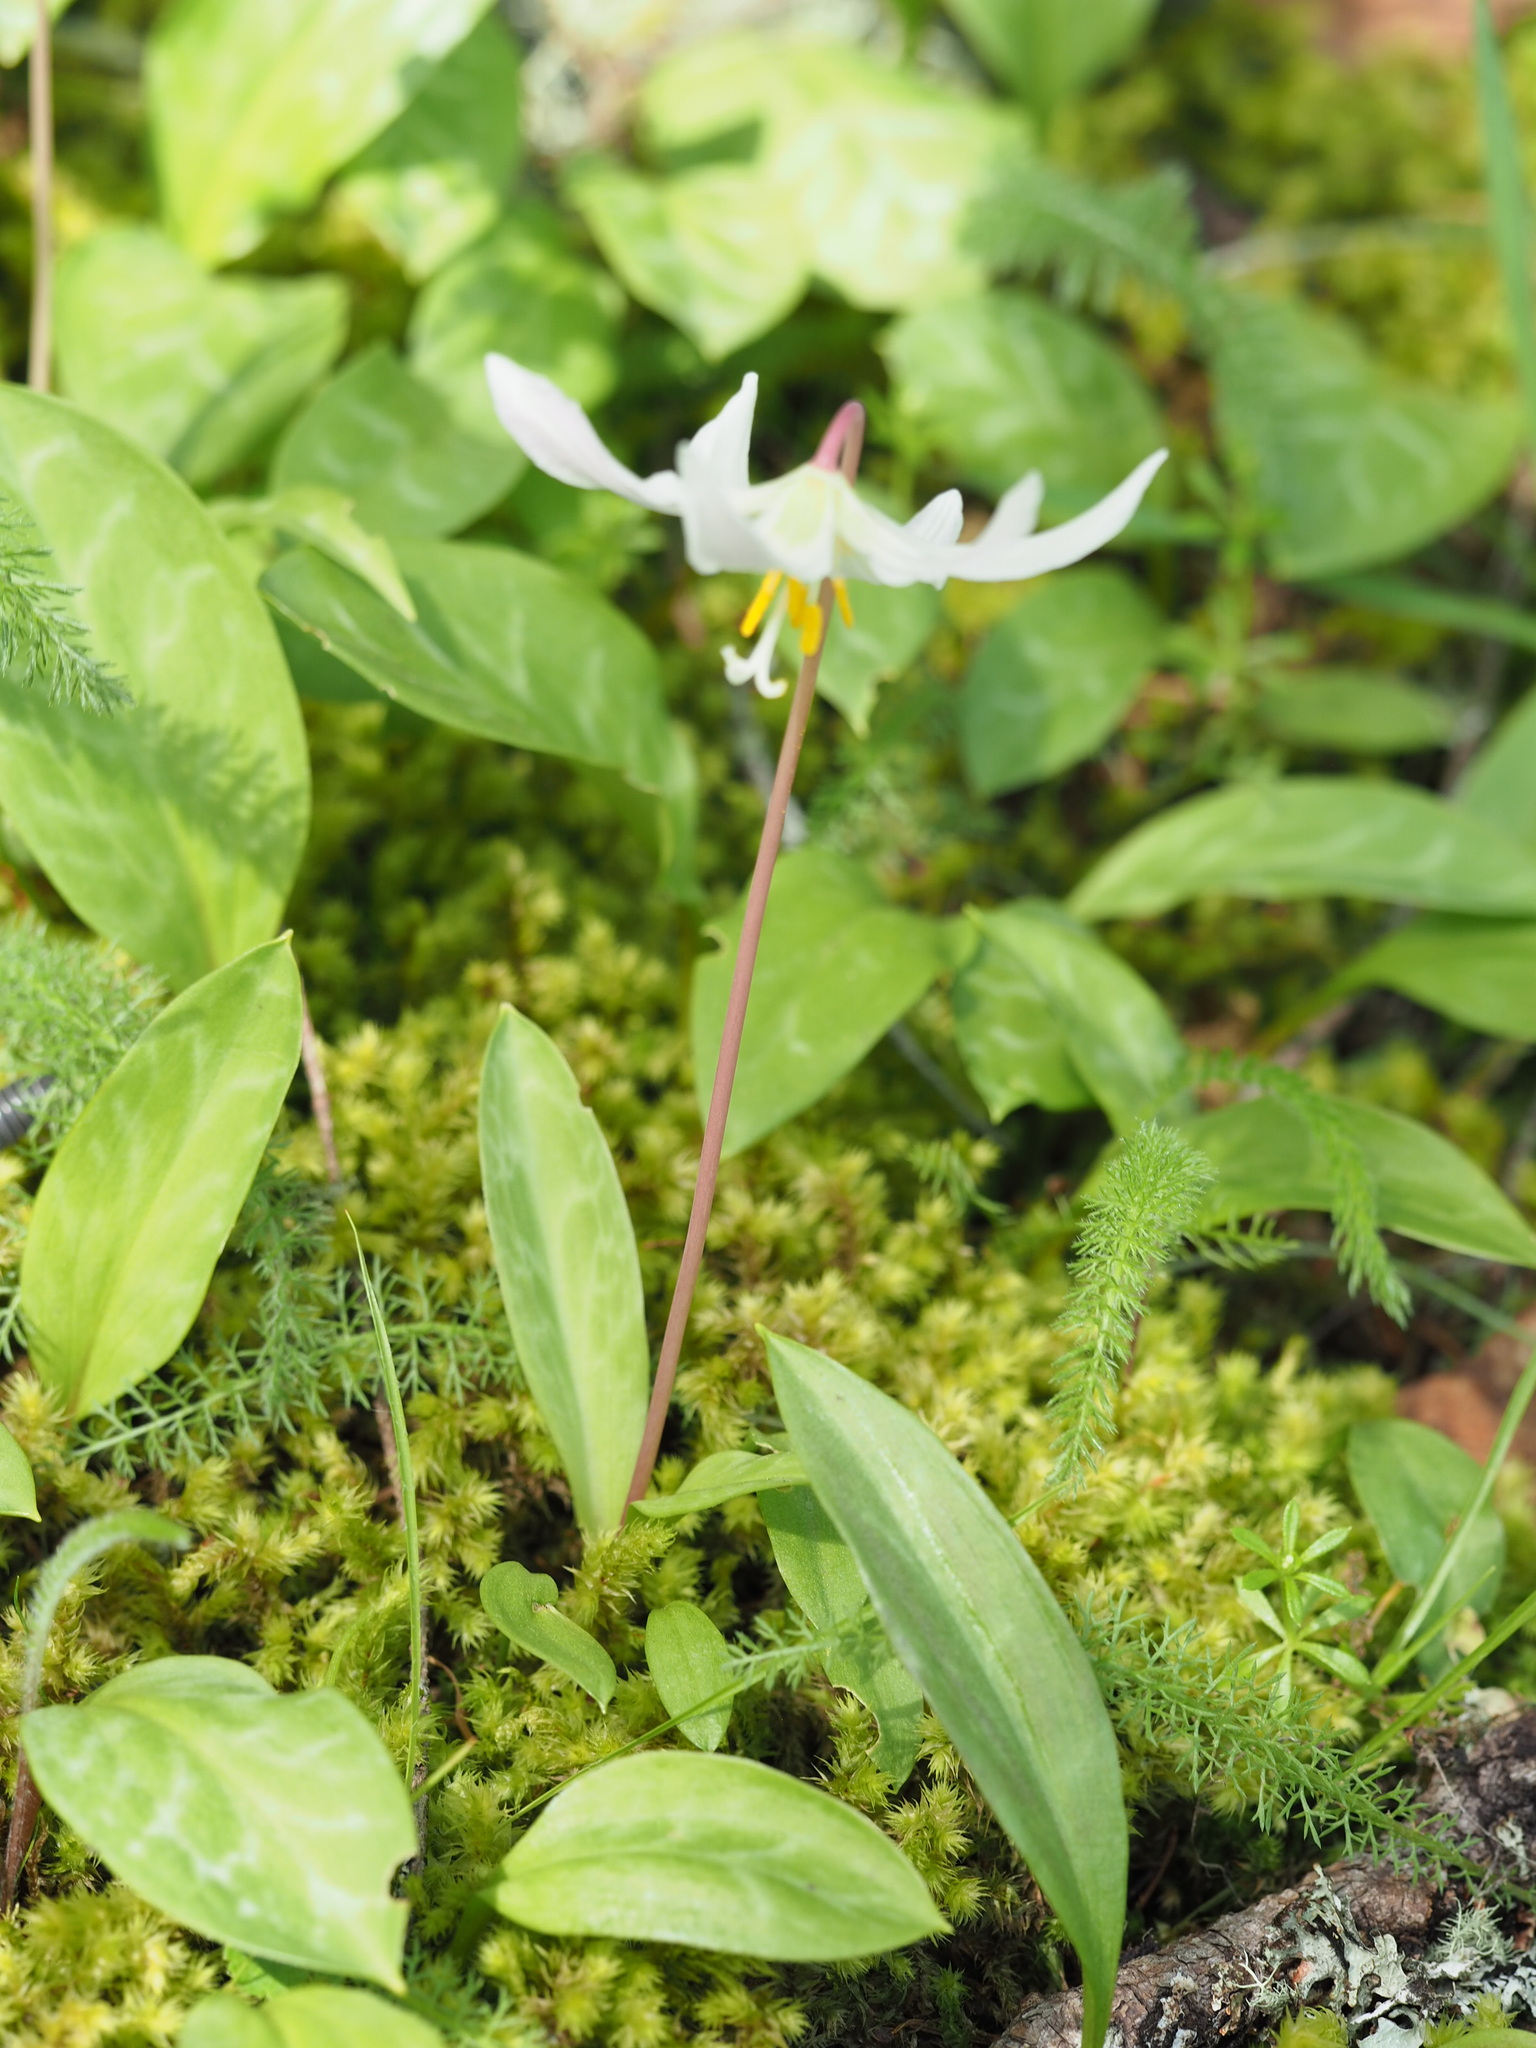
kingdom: Plantae
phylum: Tracheophyta
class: Liliopsida
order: Liliales
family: Liliaceae
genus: Erythronium
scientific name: Erythronium oregonum
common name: Giant adder's-tongue
